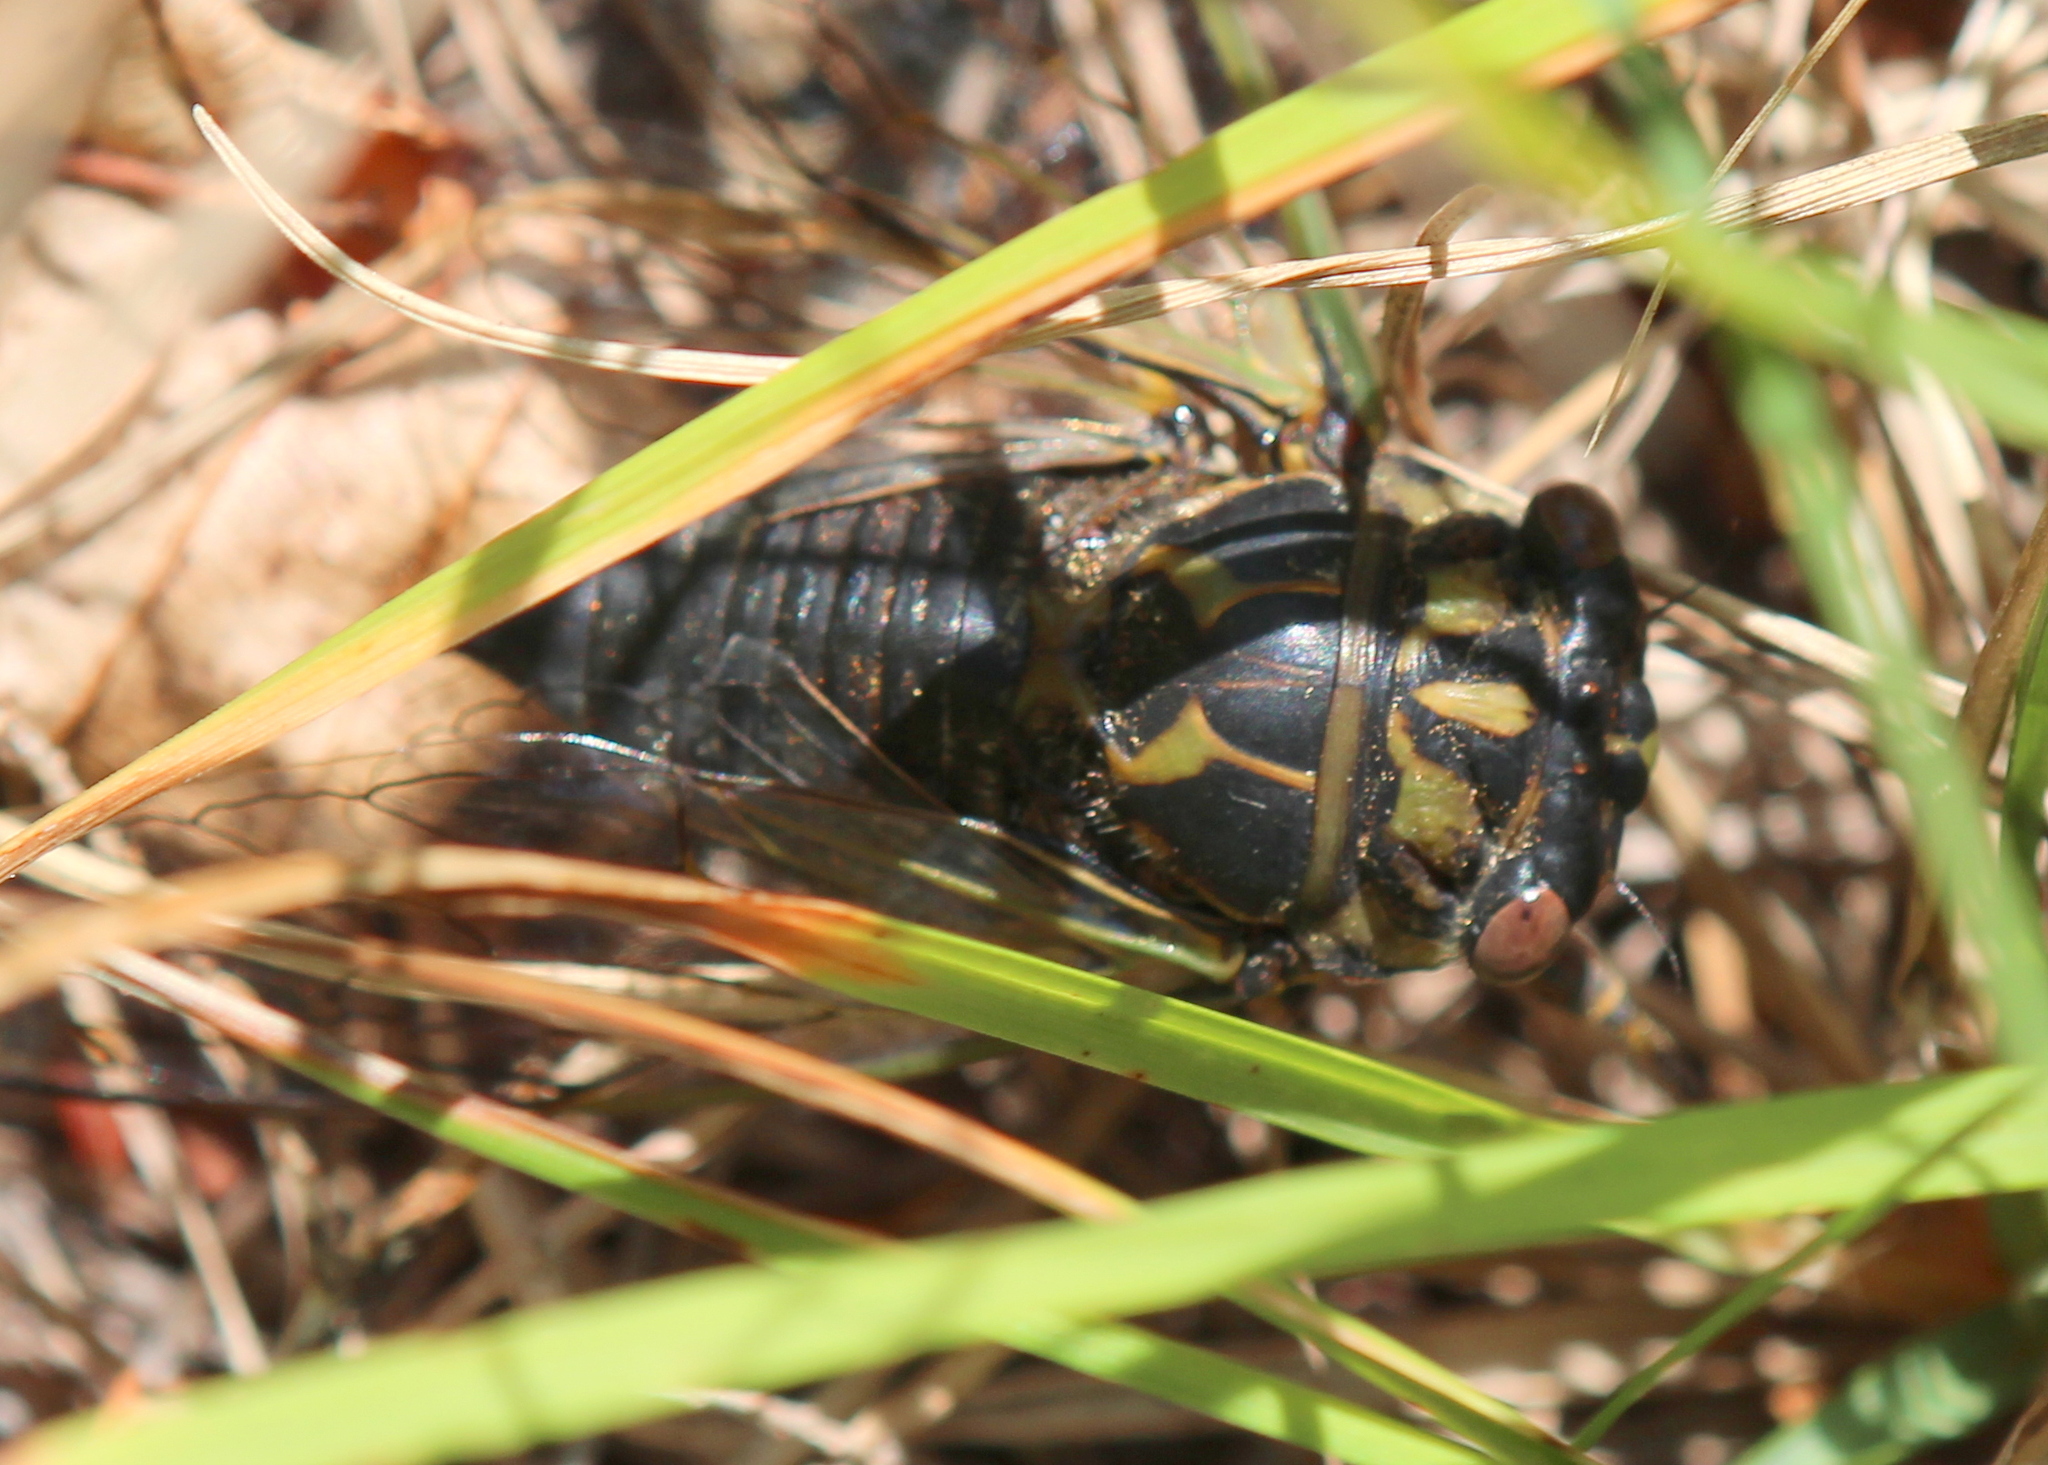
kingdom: Animalia
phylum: Arthropoda
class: Insecta
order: Hemiptera
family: Cicadidae
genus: Neotibicen
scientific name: Neotibicen canicularis
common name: God-day cicada
